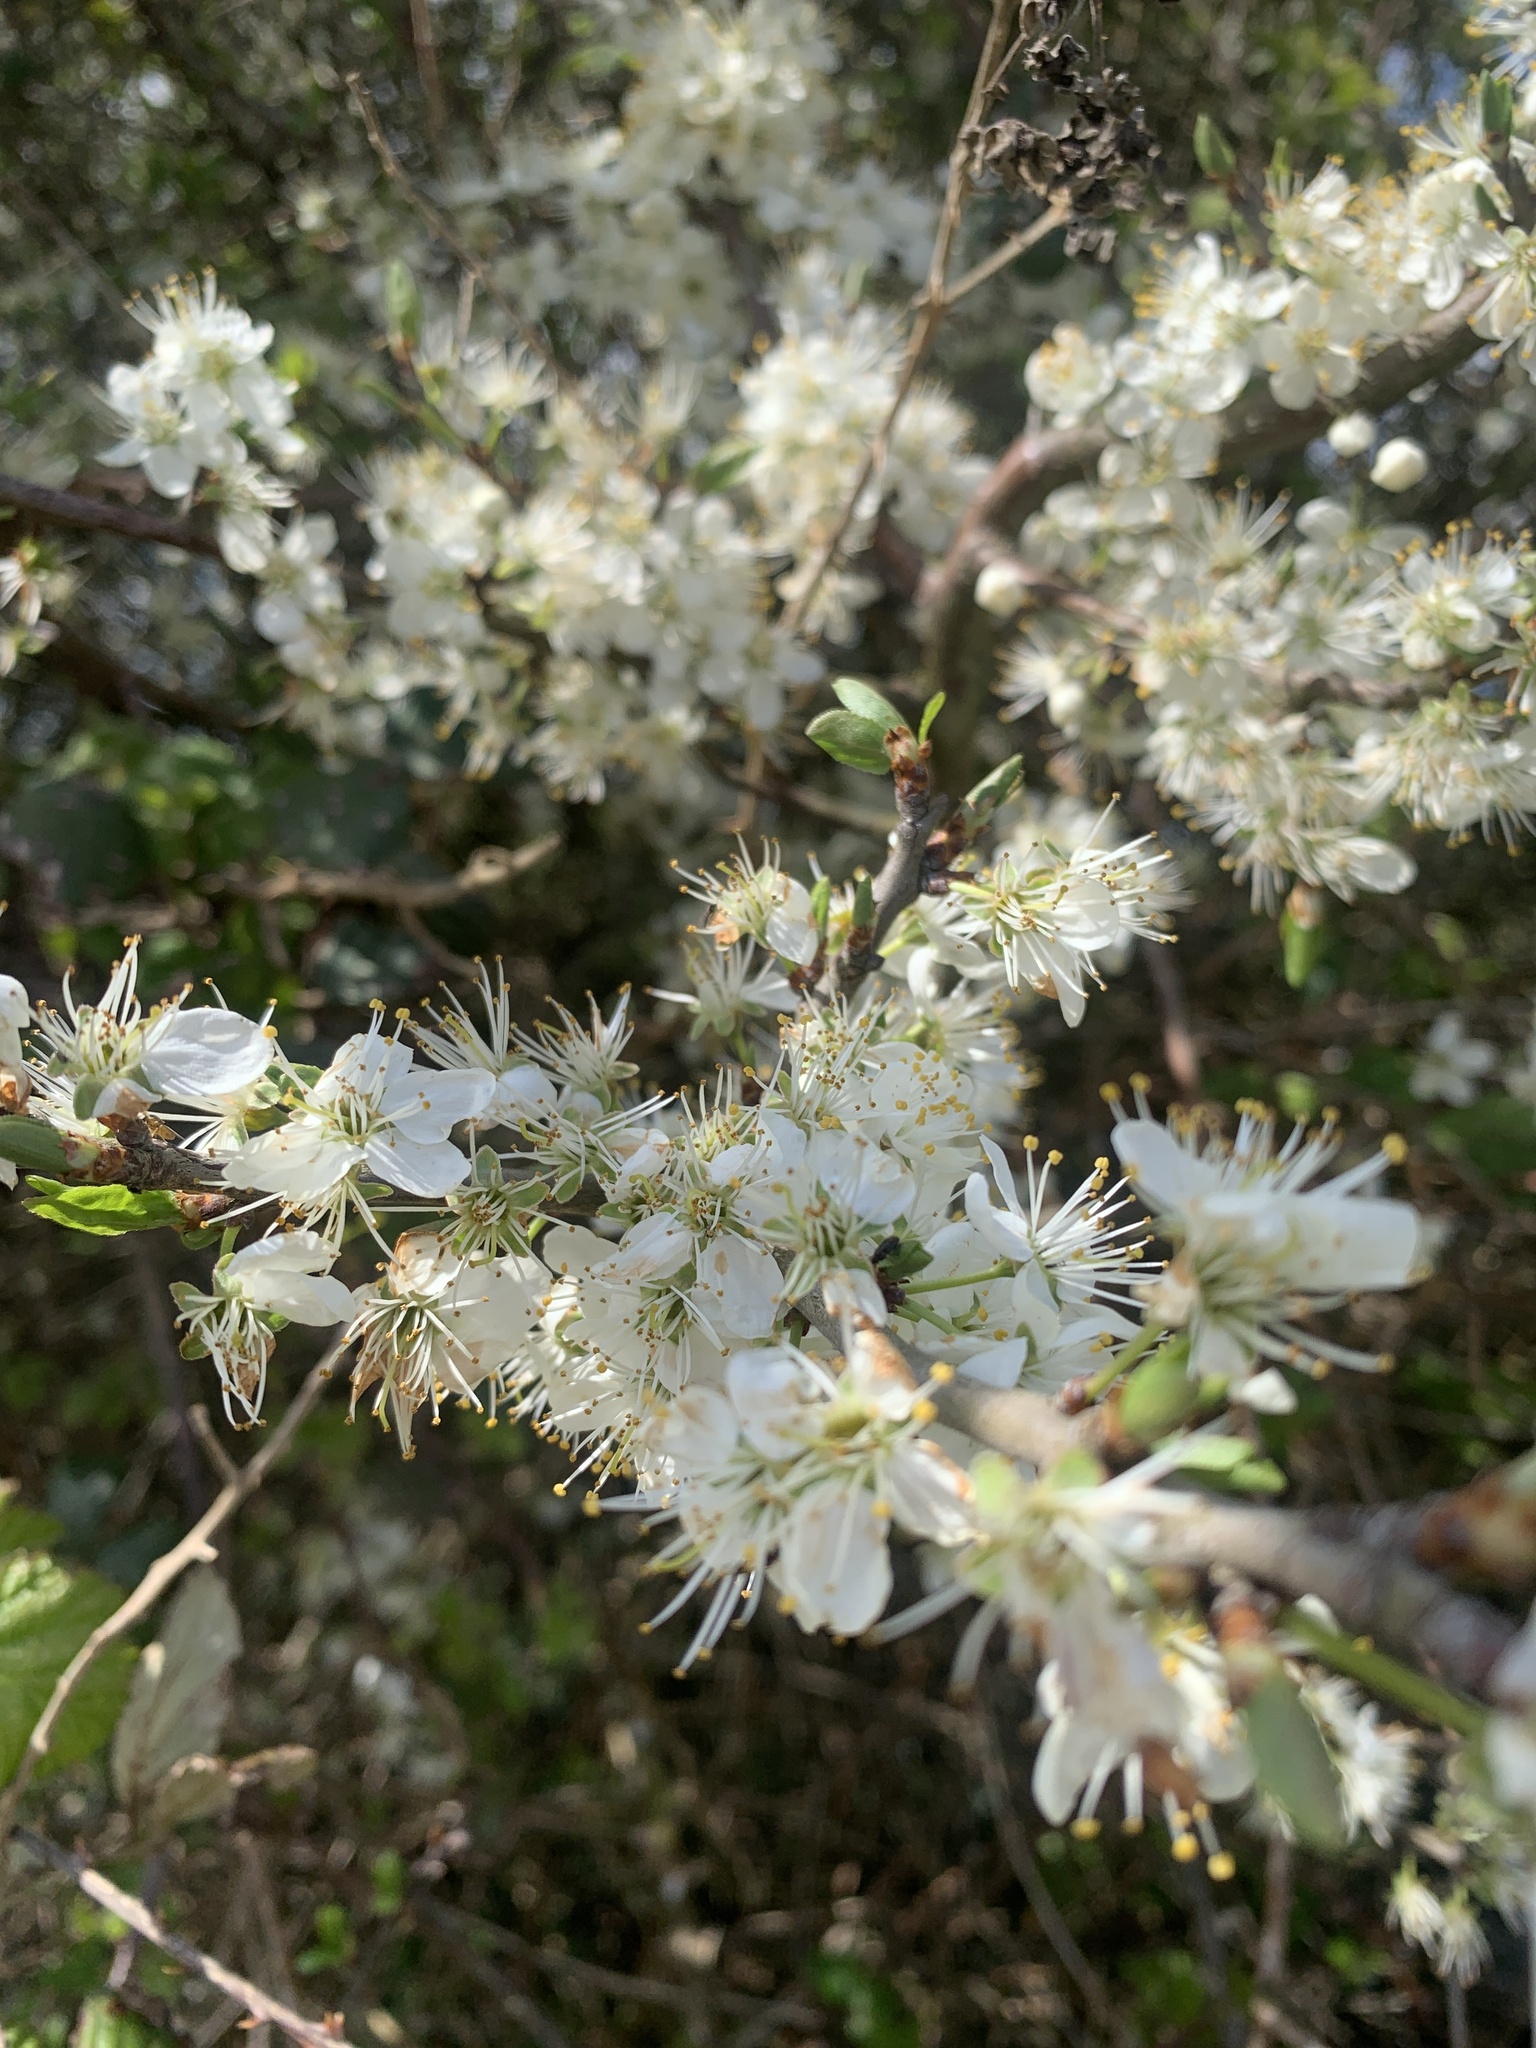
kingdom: Plantae
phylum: Tracheophyta
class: Magnoliopsida
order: Rosales
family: Rosaceae
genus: Prunus
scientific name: Prunus spinosa
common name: Blackthorn
